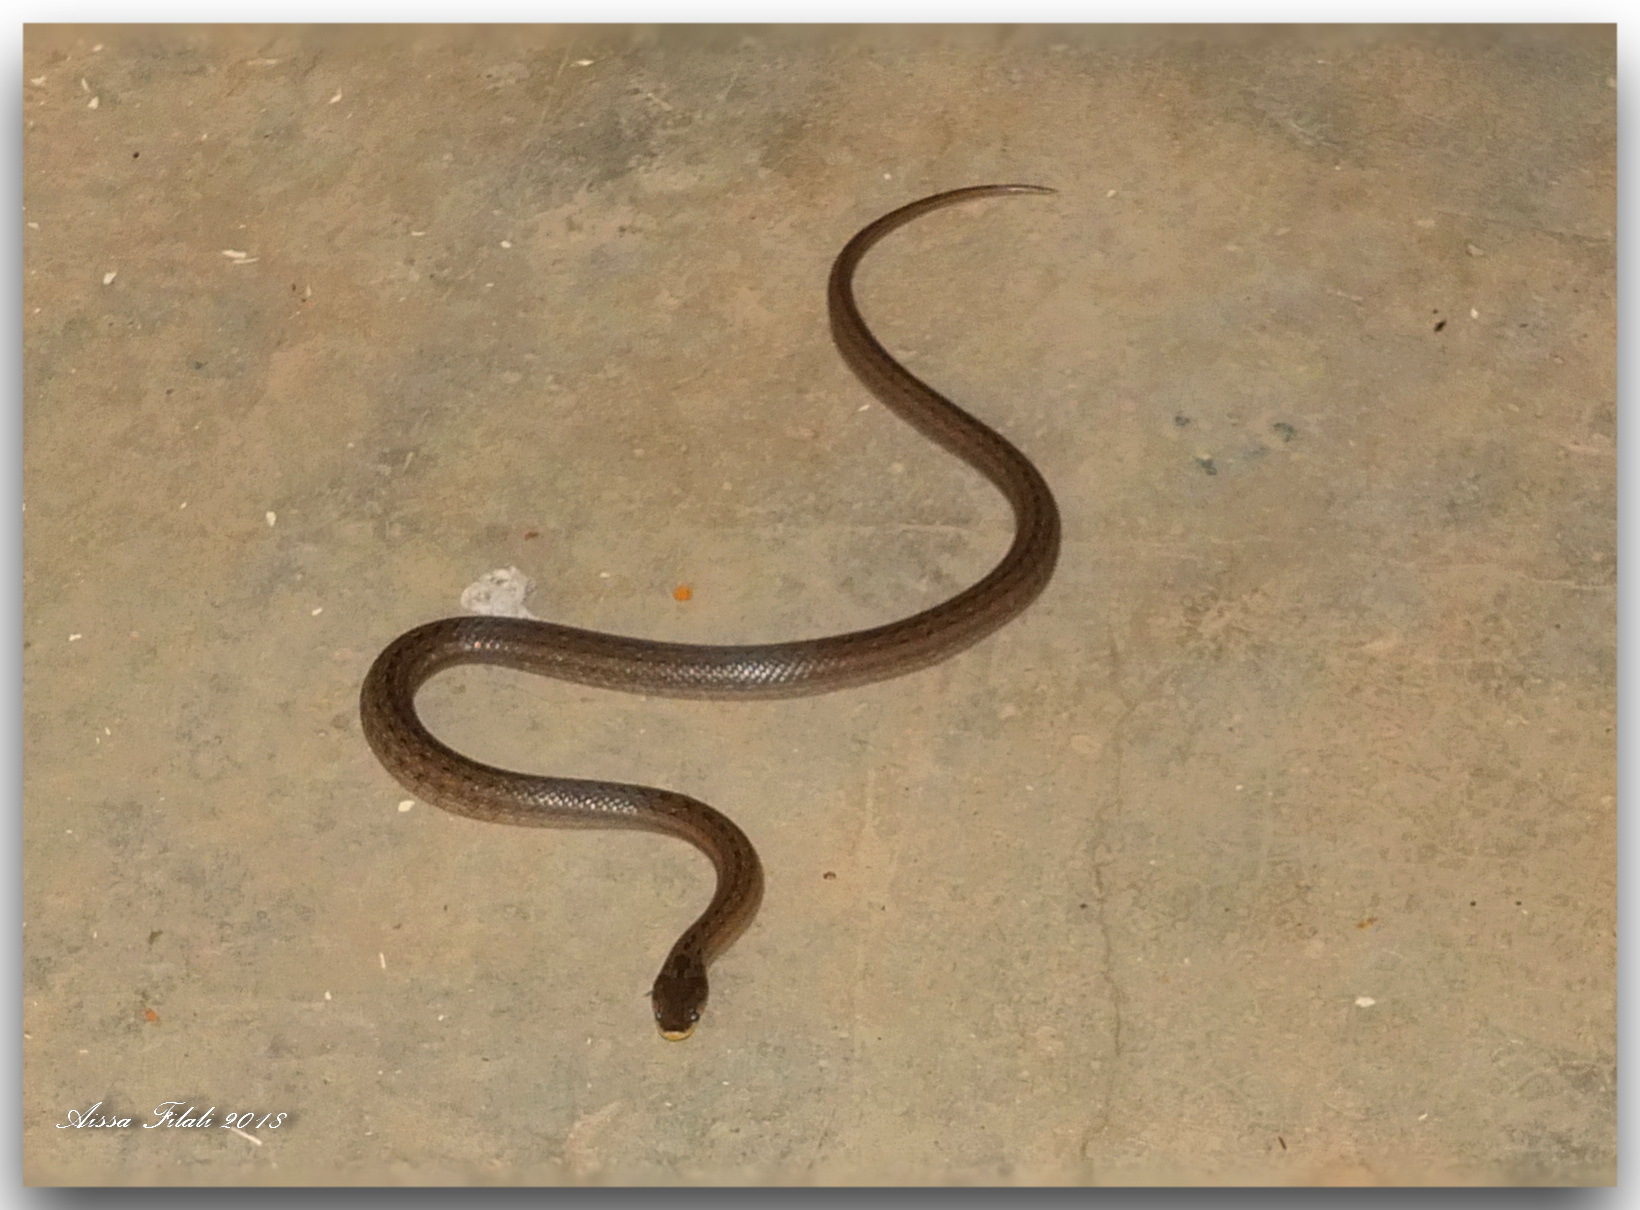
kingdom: Animalia
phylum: Chordata
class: Squamata
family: Colubridae
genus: Macroprotodon
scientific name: Macroprotodon mauritanicus
